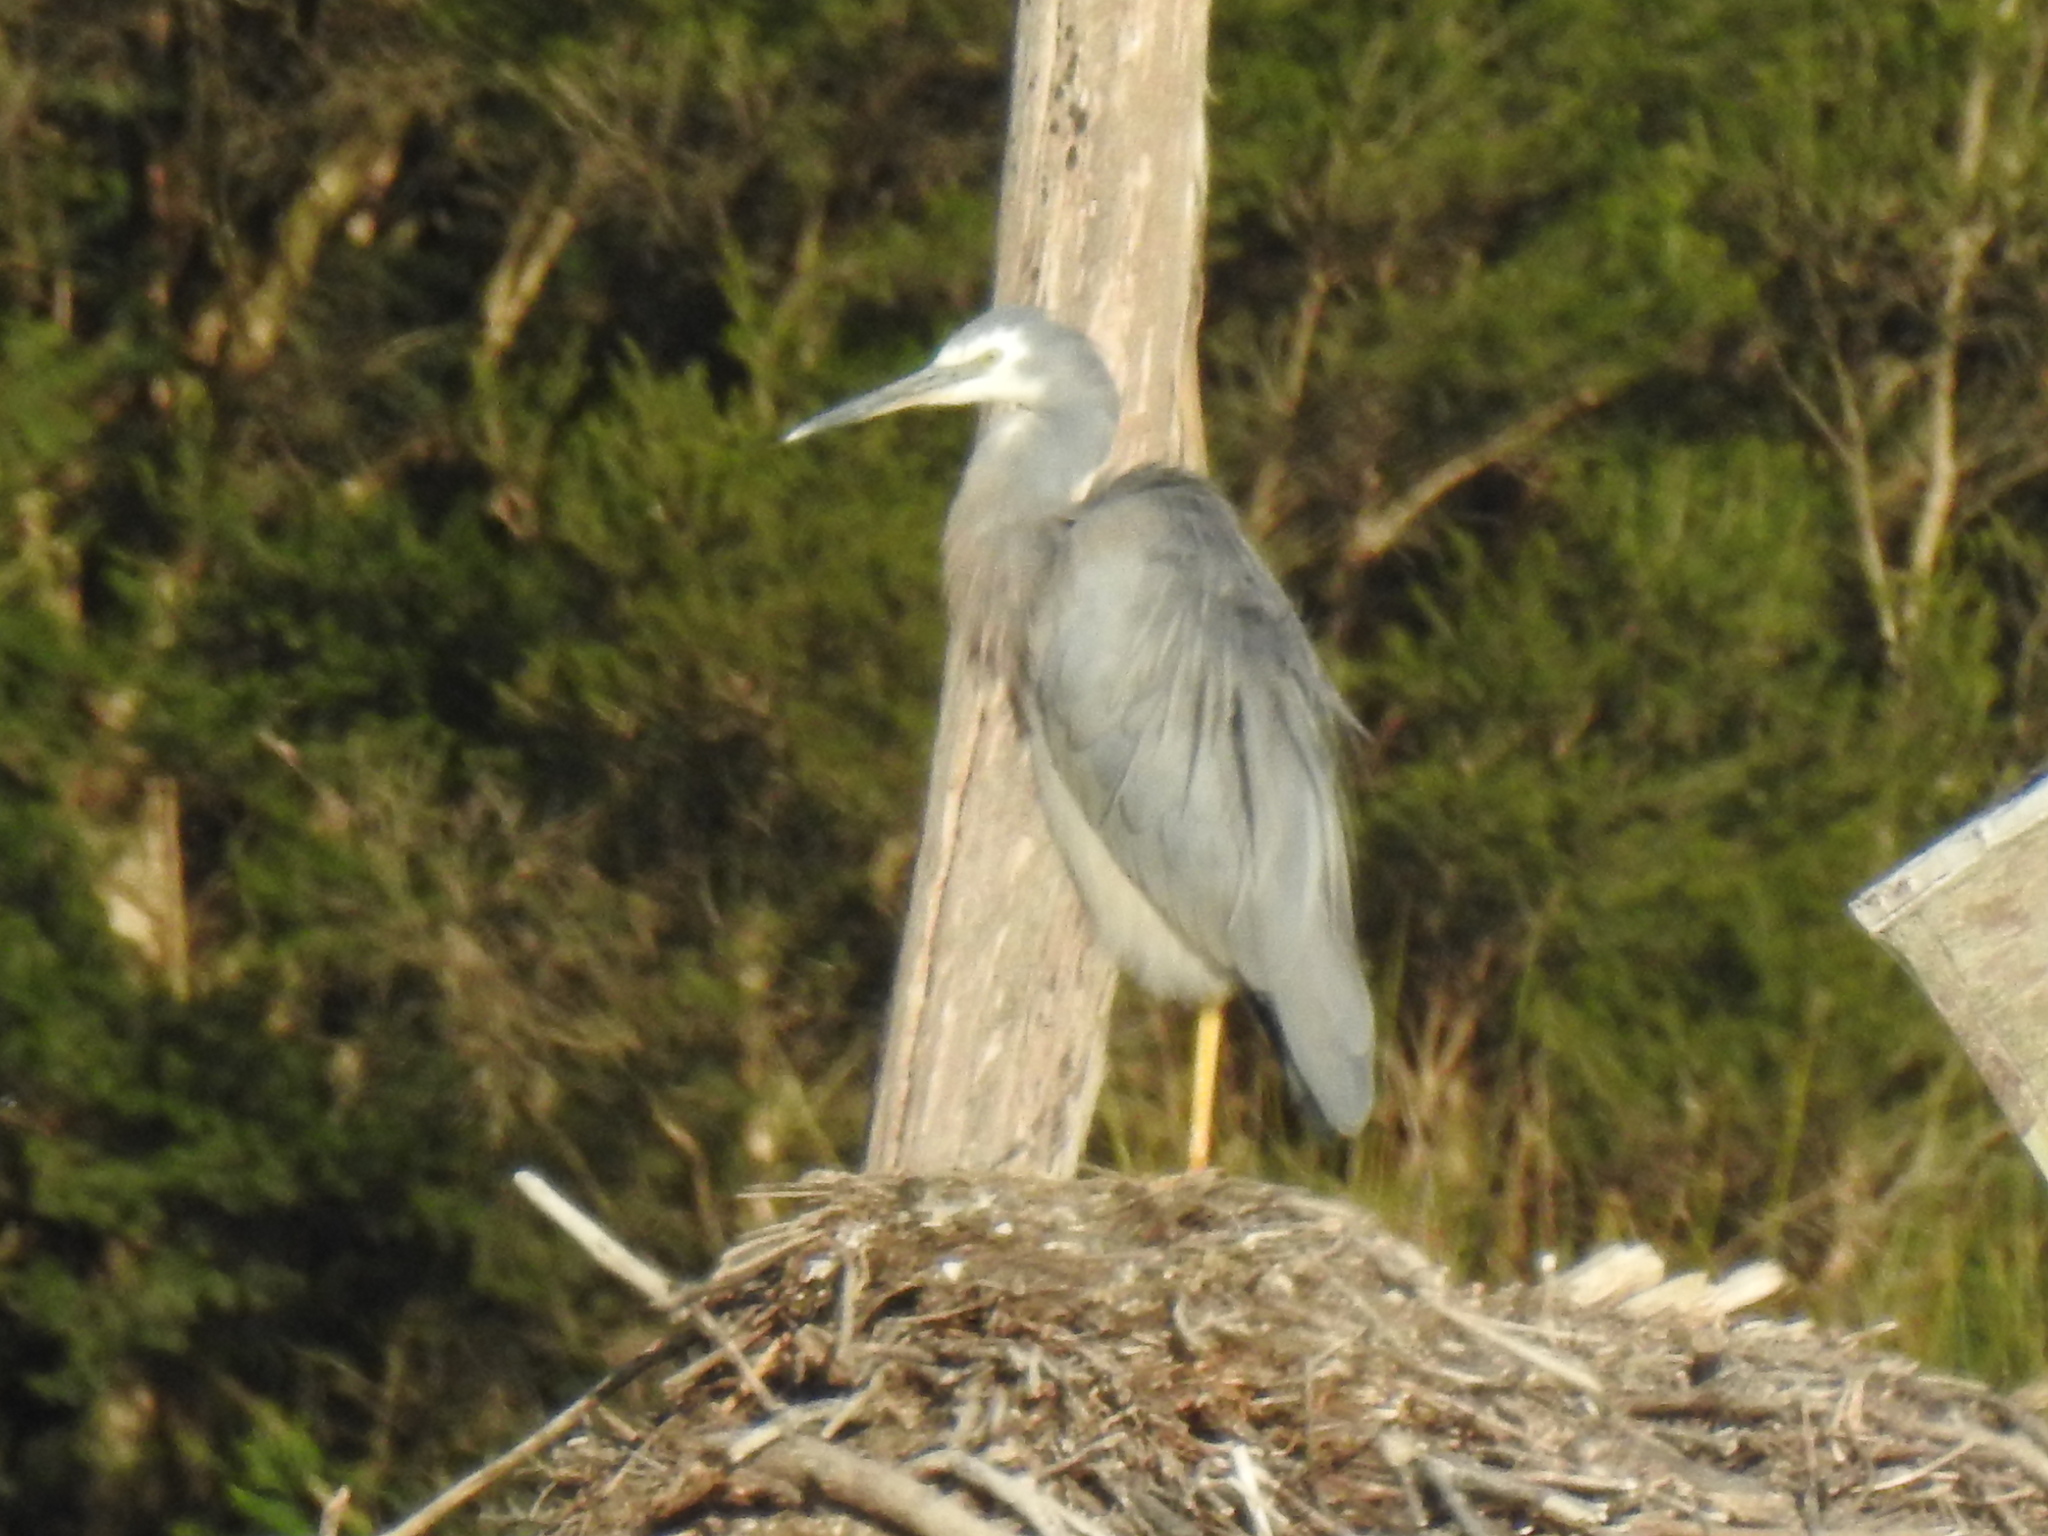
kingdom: Animalia
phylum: Chordata
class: Aves
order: Pelecaniformes
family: Ardeidae
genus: Egretta
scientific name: Egretta novaehollandiae
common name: White-faced heron
